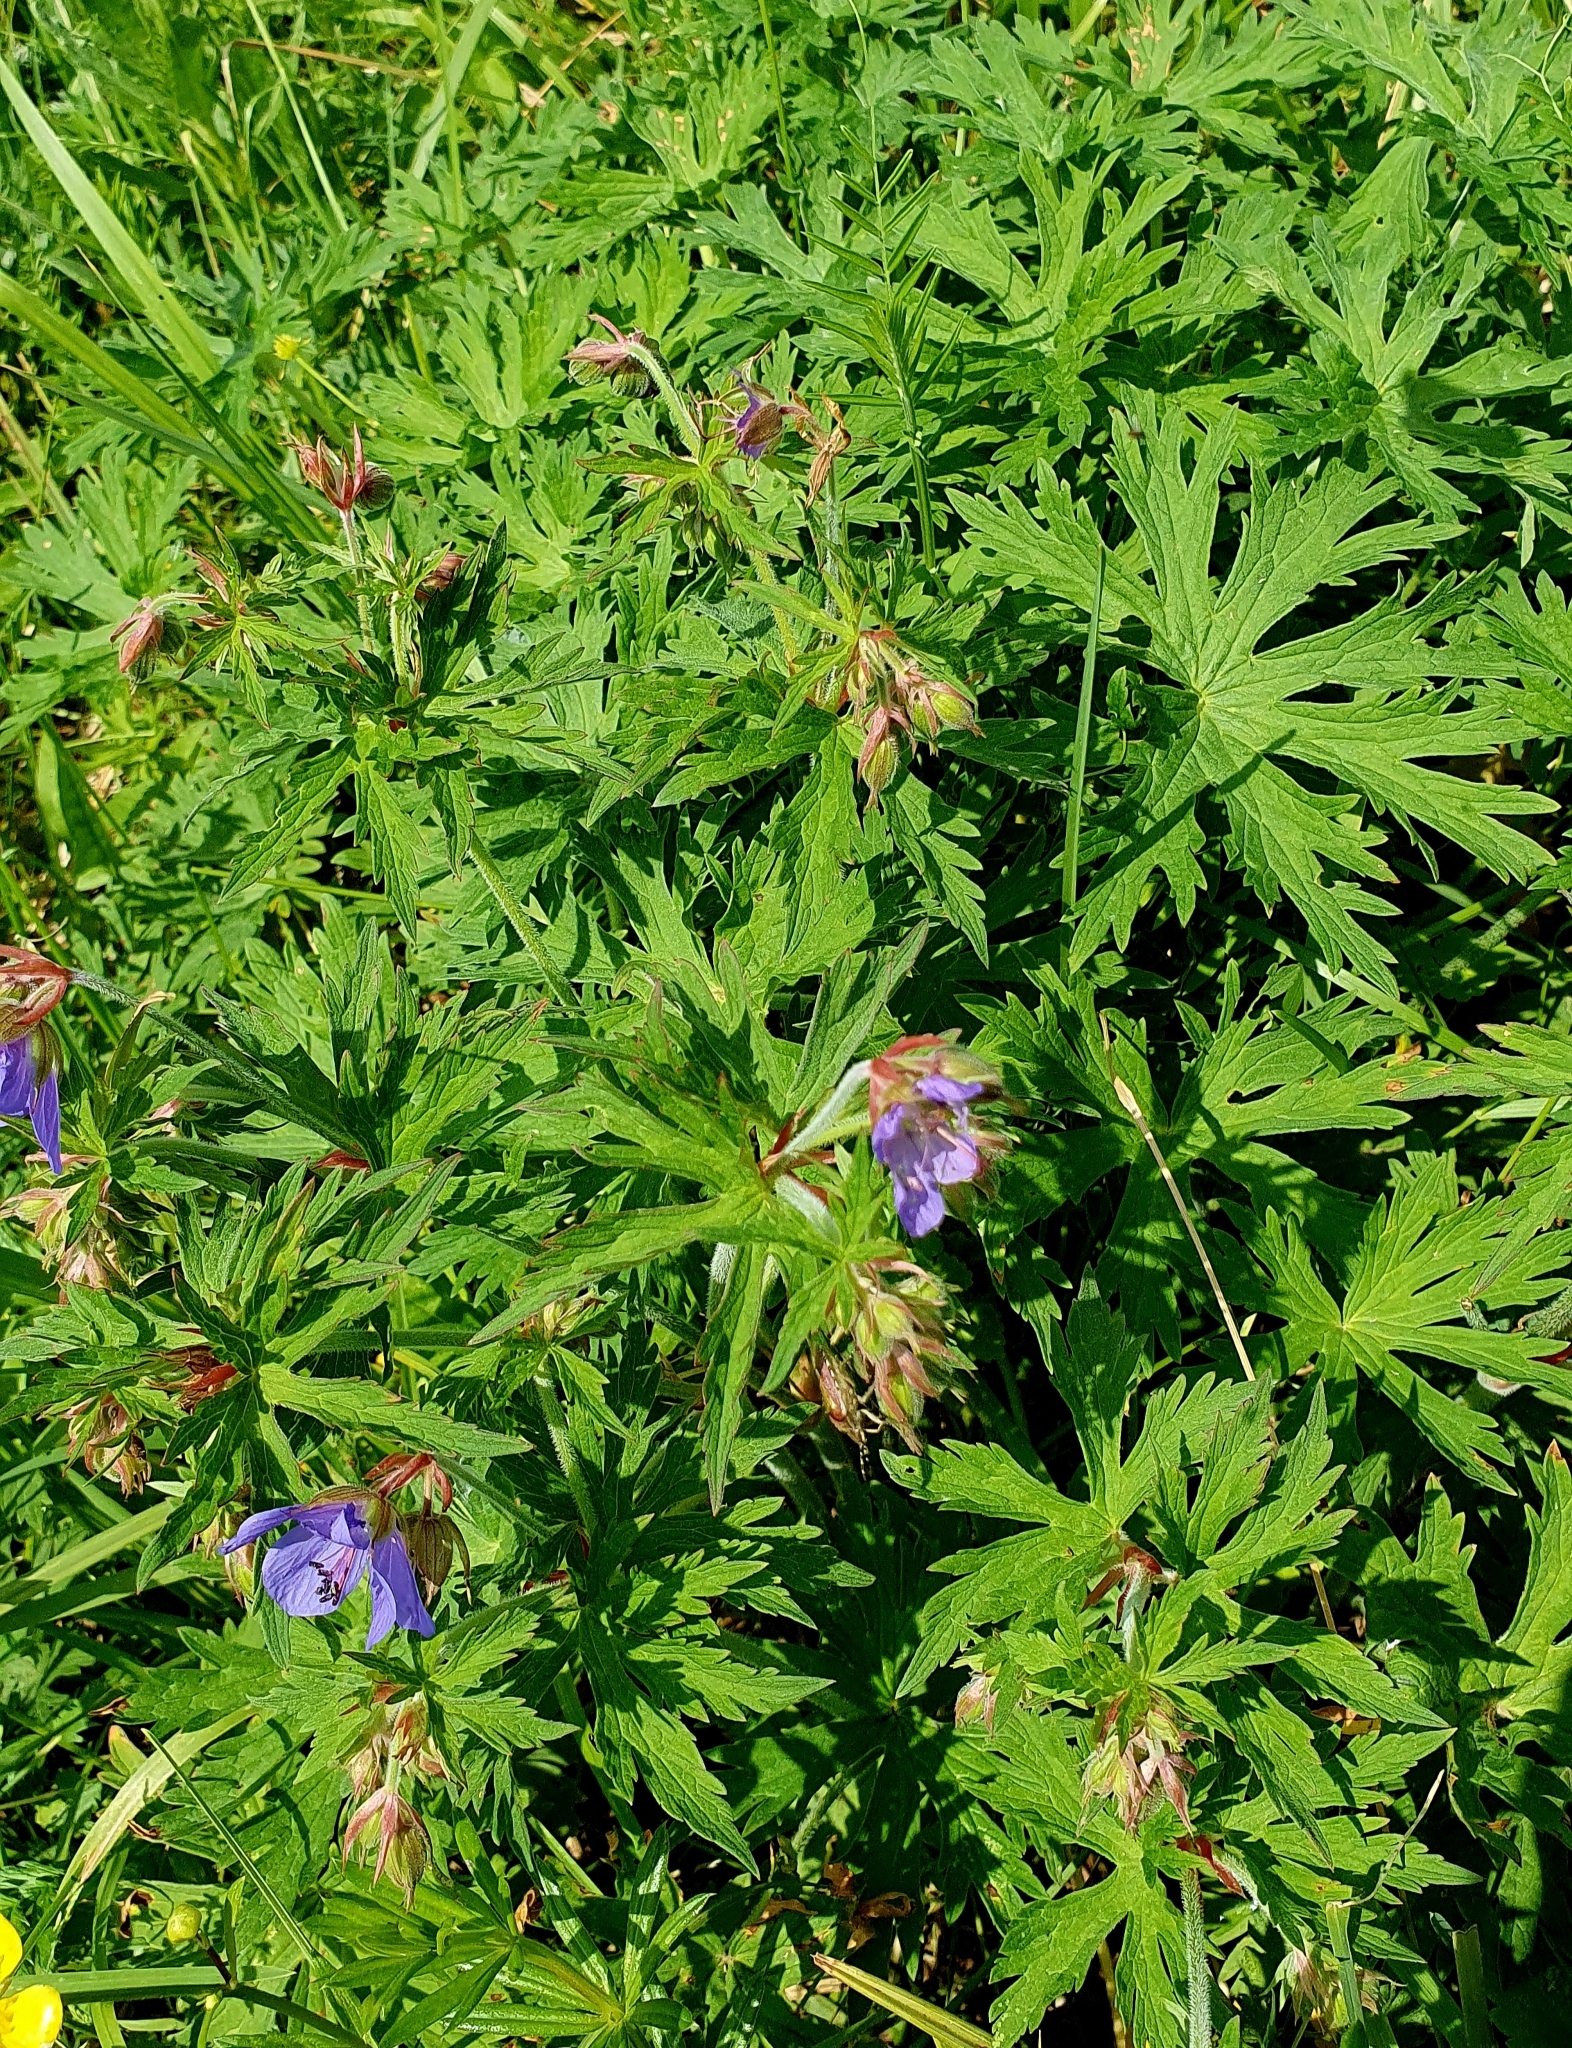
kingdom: Plantae
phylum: Tracheophyta
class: Magnoliopsida
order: Geraniales
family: Geraniaceae
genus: Geranium
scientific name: Geranium pratense
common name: Meadow crane's-bill
